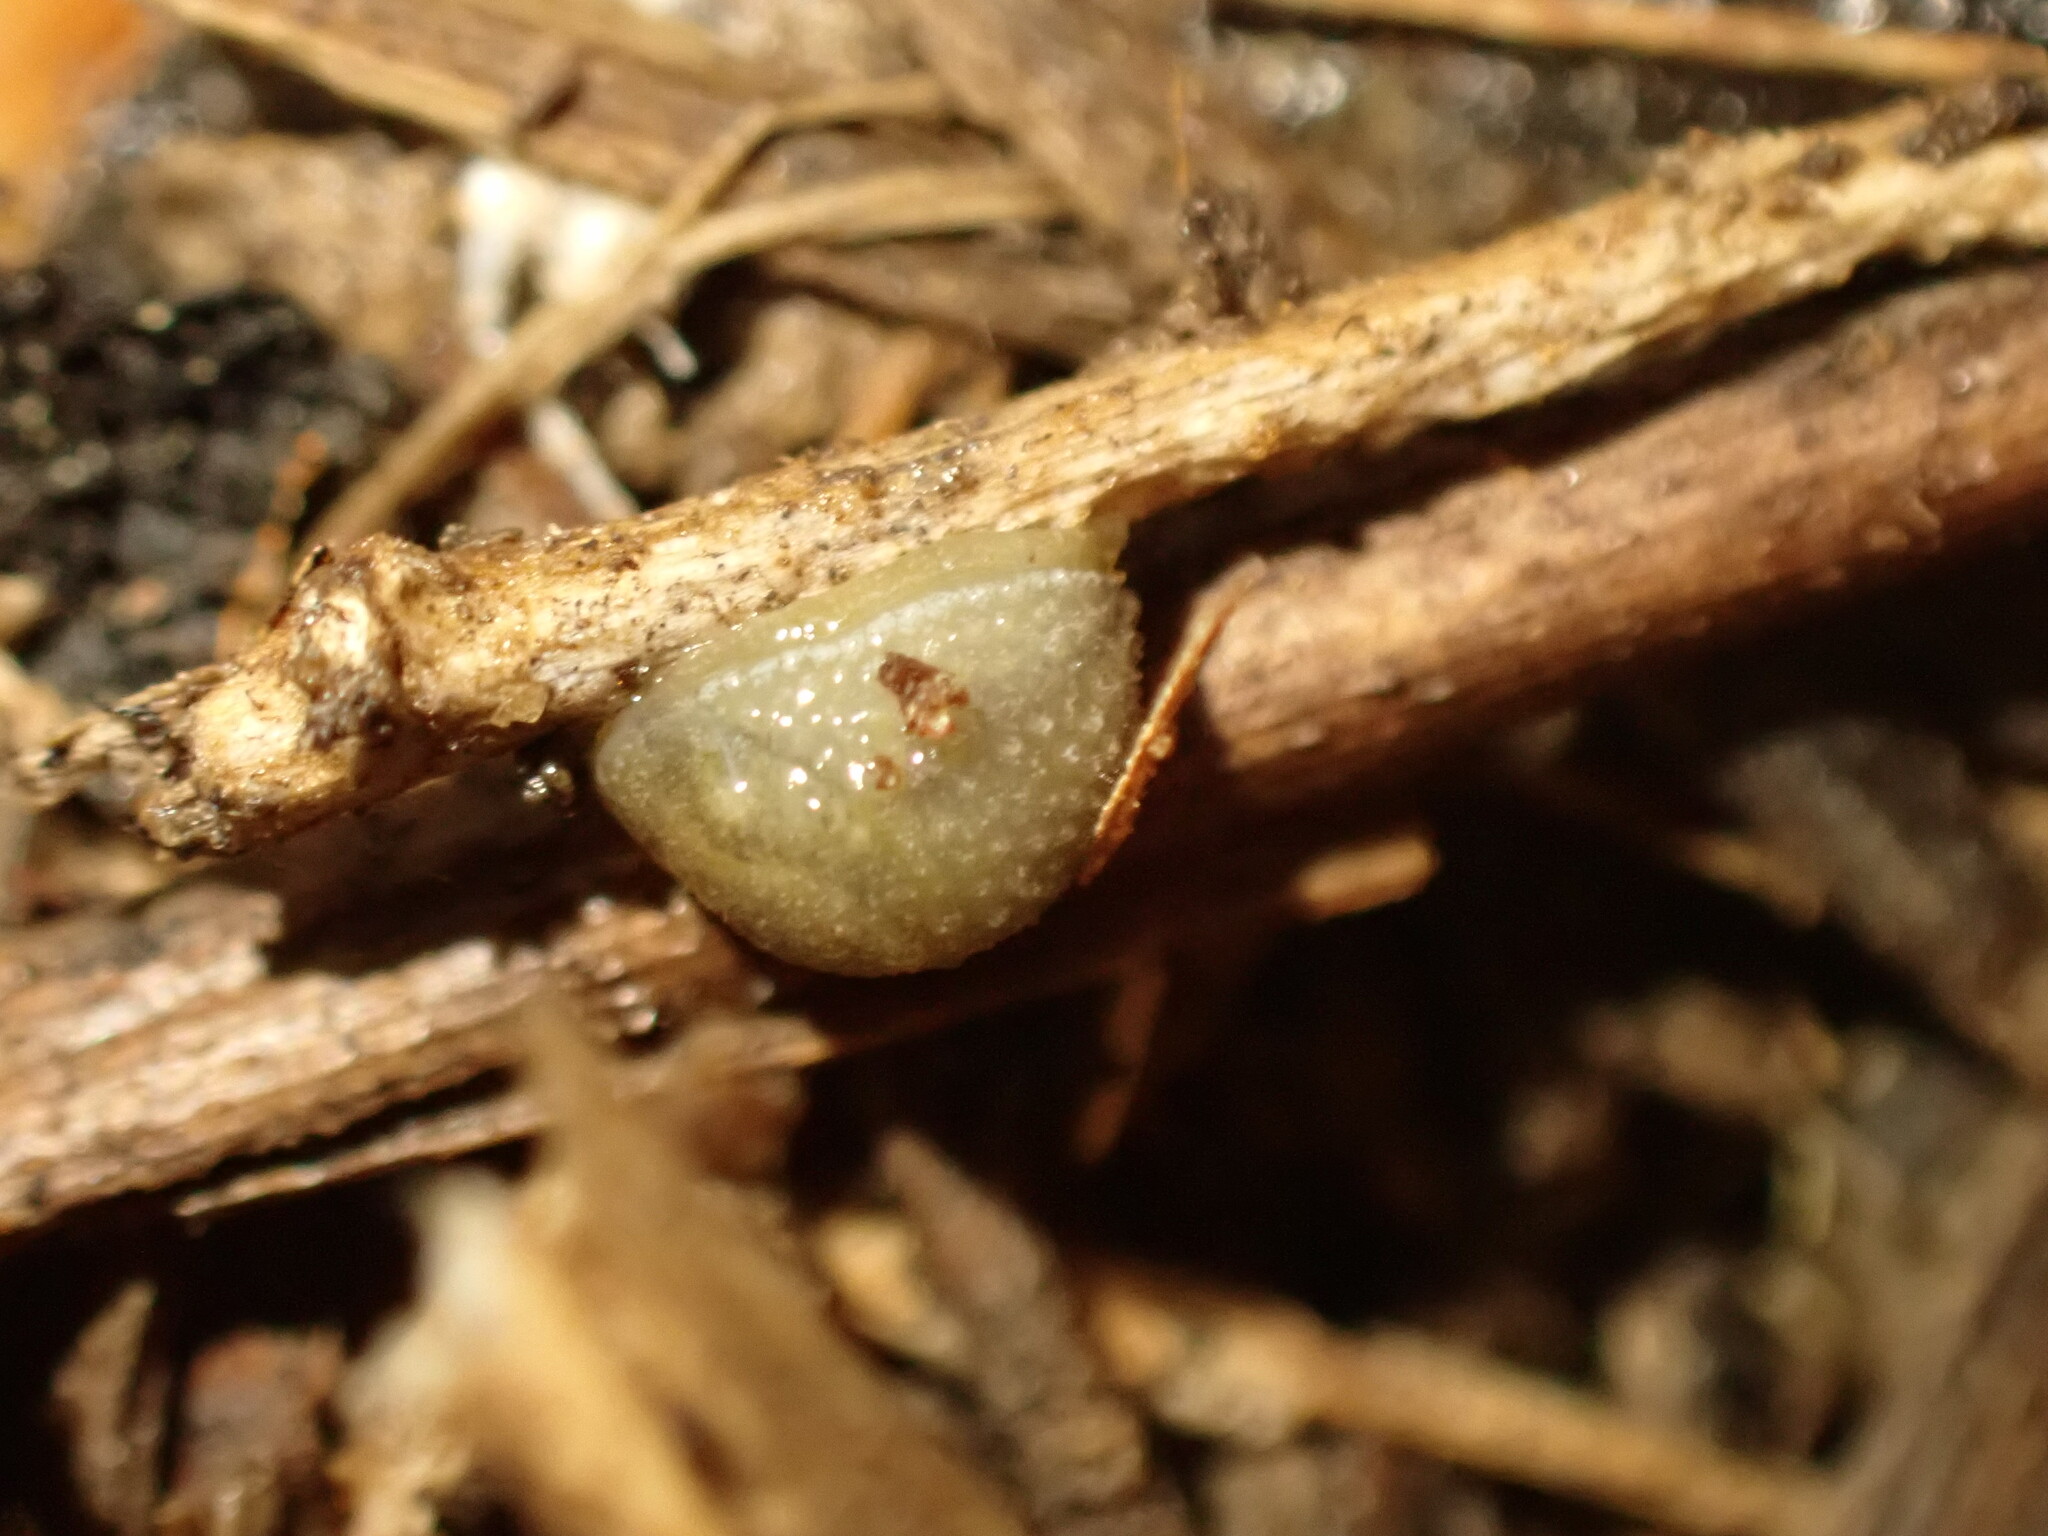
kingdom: Animalia
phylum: Mollusca
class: Gastropoda
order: Stylommatophora
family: Arionidae
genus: Arion
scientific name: Arion intermedius
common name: Hedgehog slug
